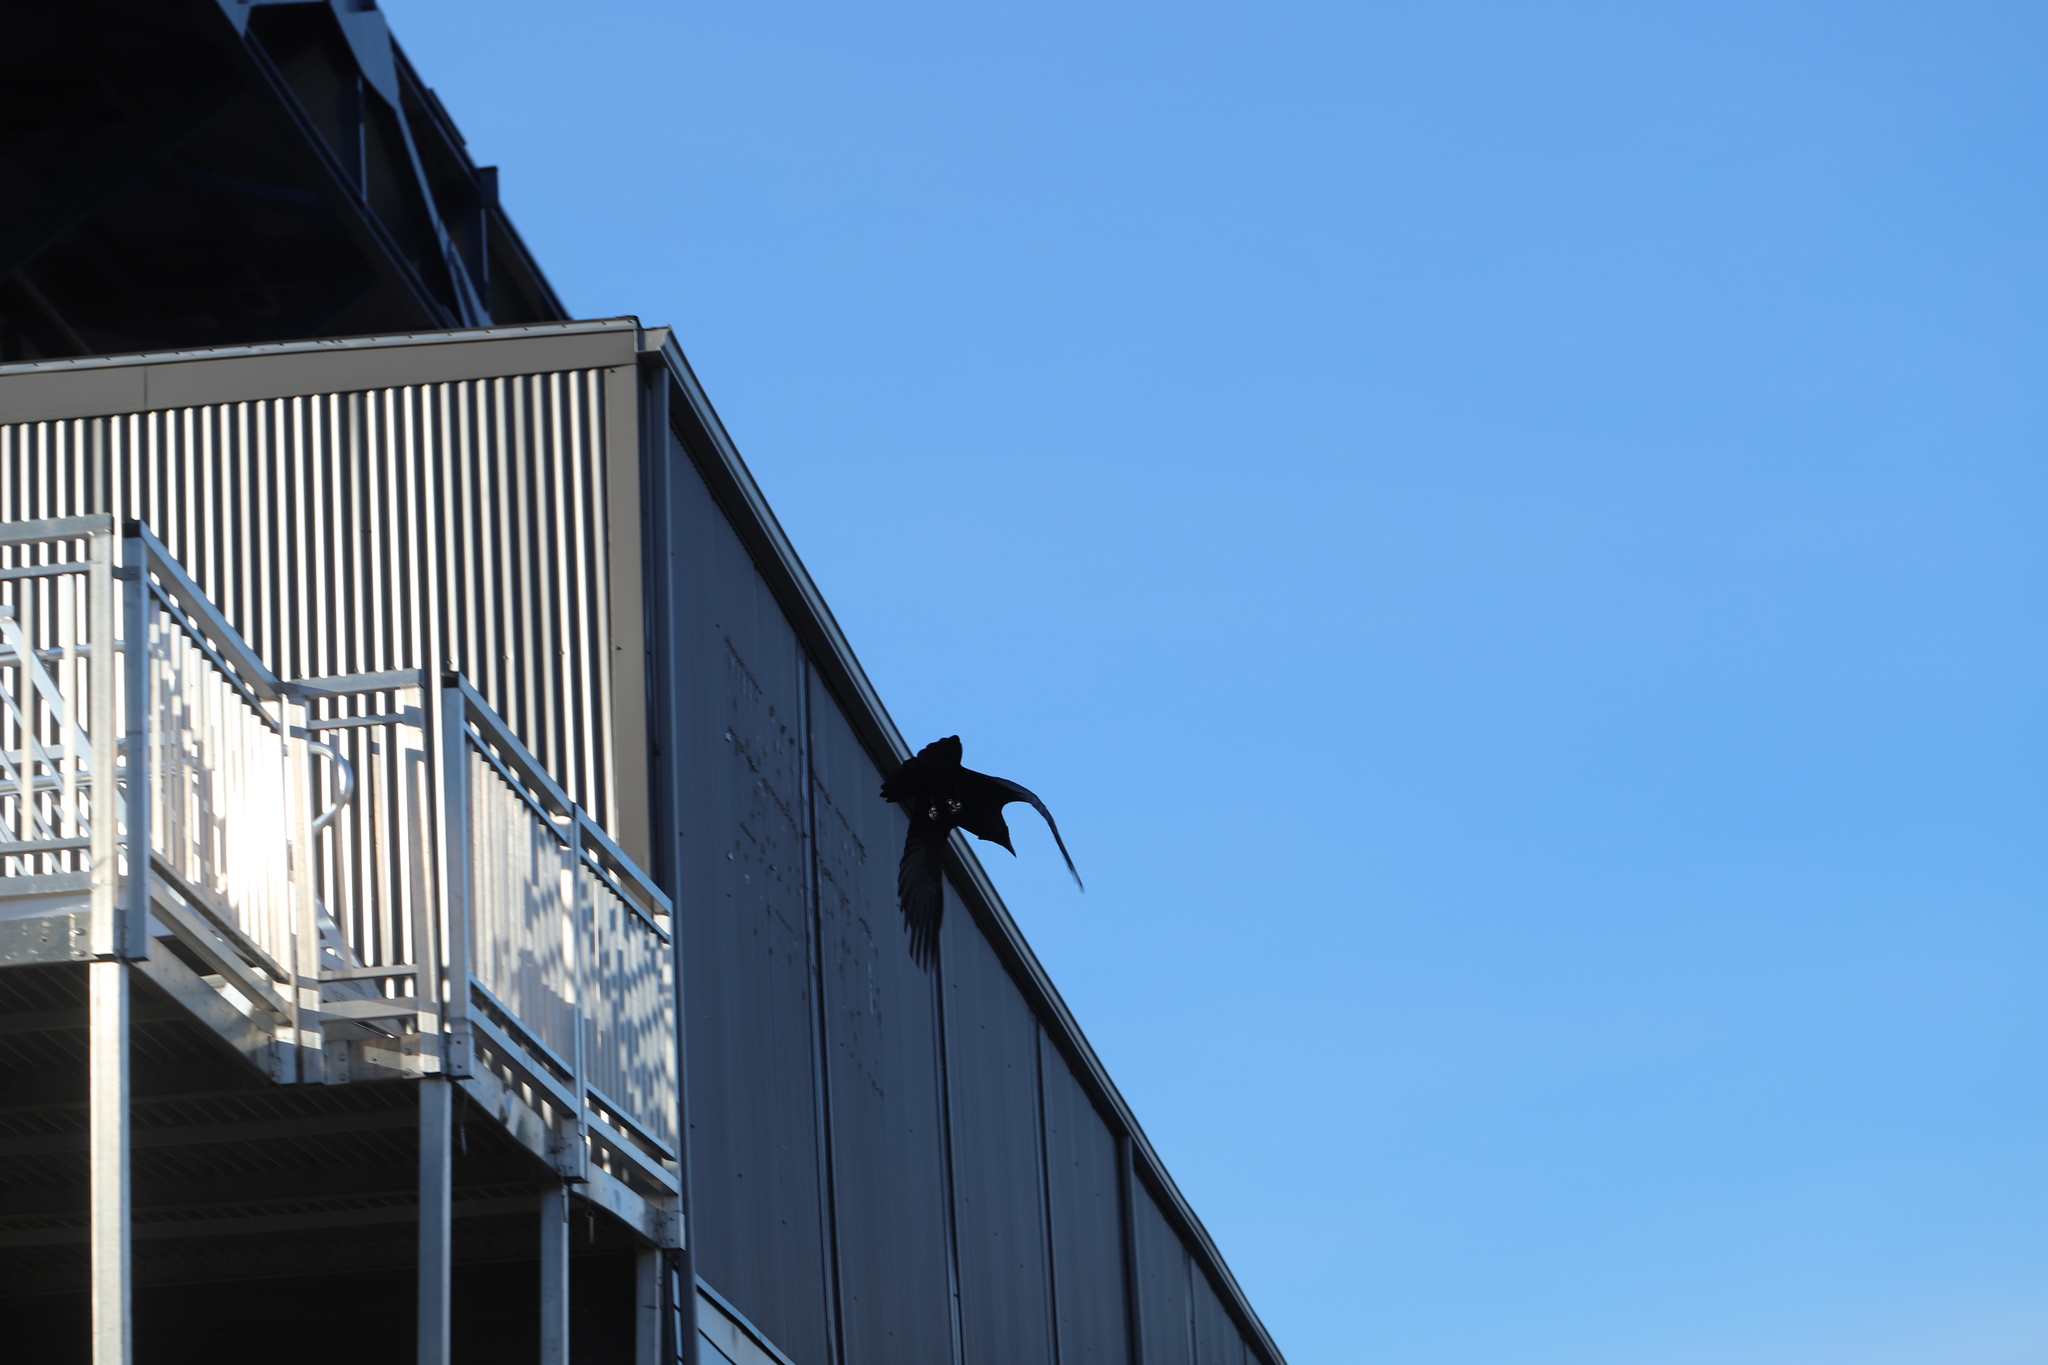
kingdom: Animalia
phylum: Chordata
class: Aves
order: Passeriformes
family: Corvidae
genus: Corvus
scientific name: Corvus corax
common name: Common raven
